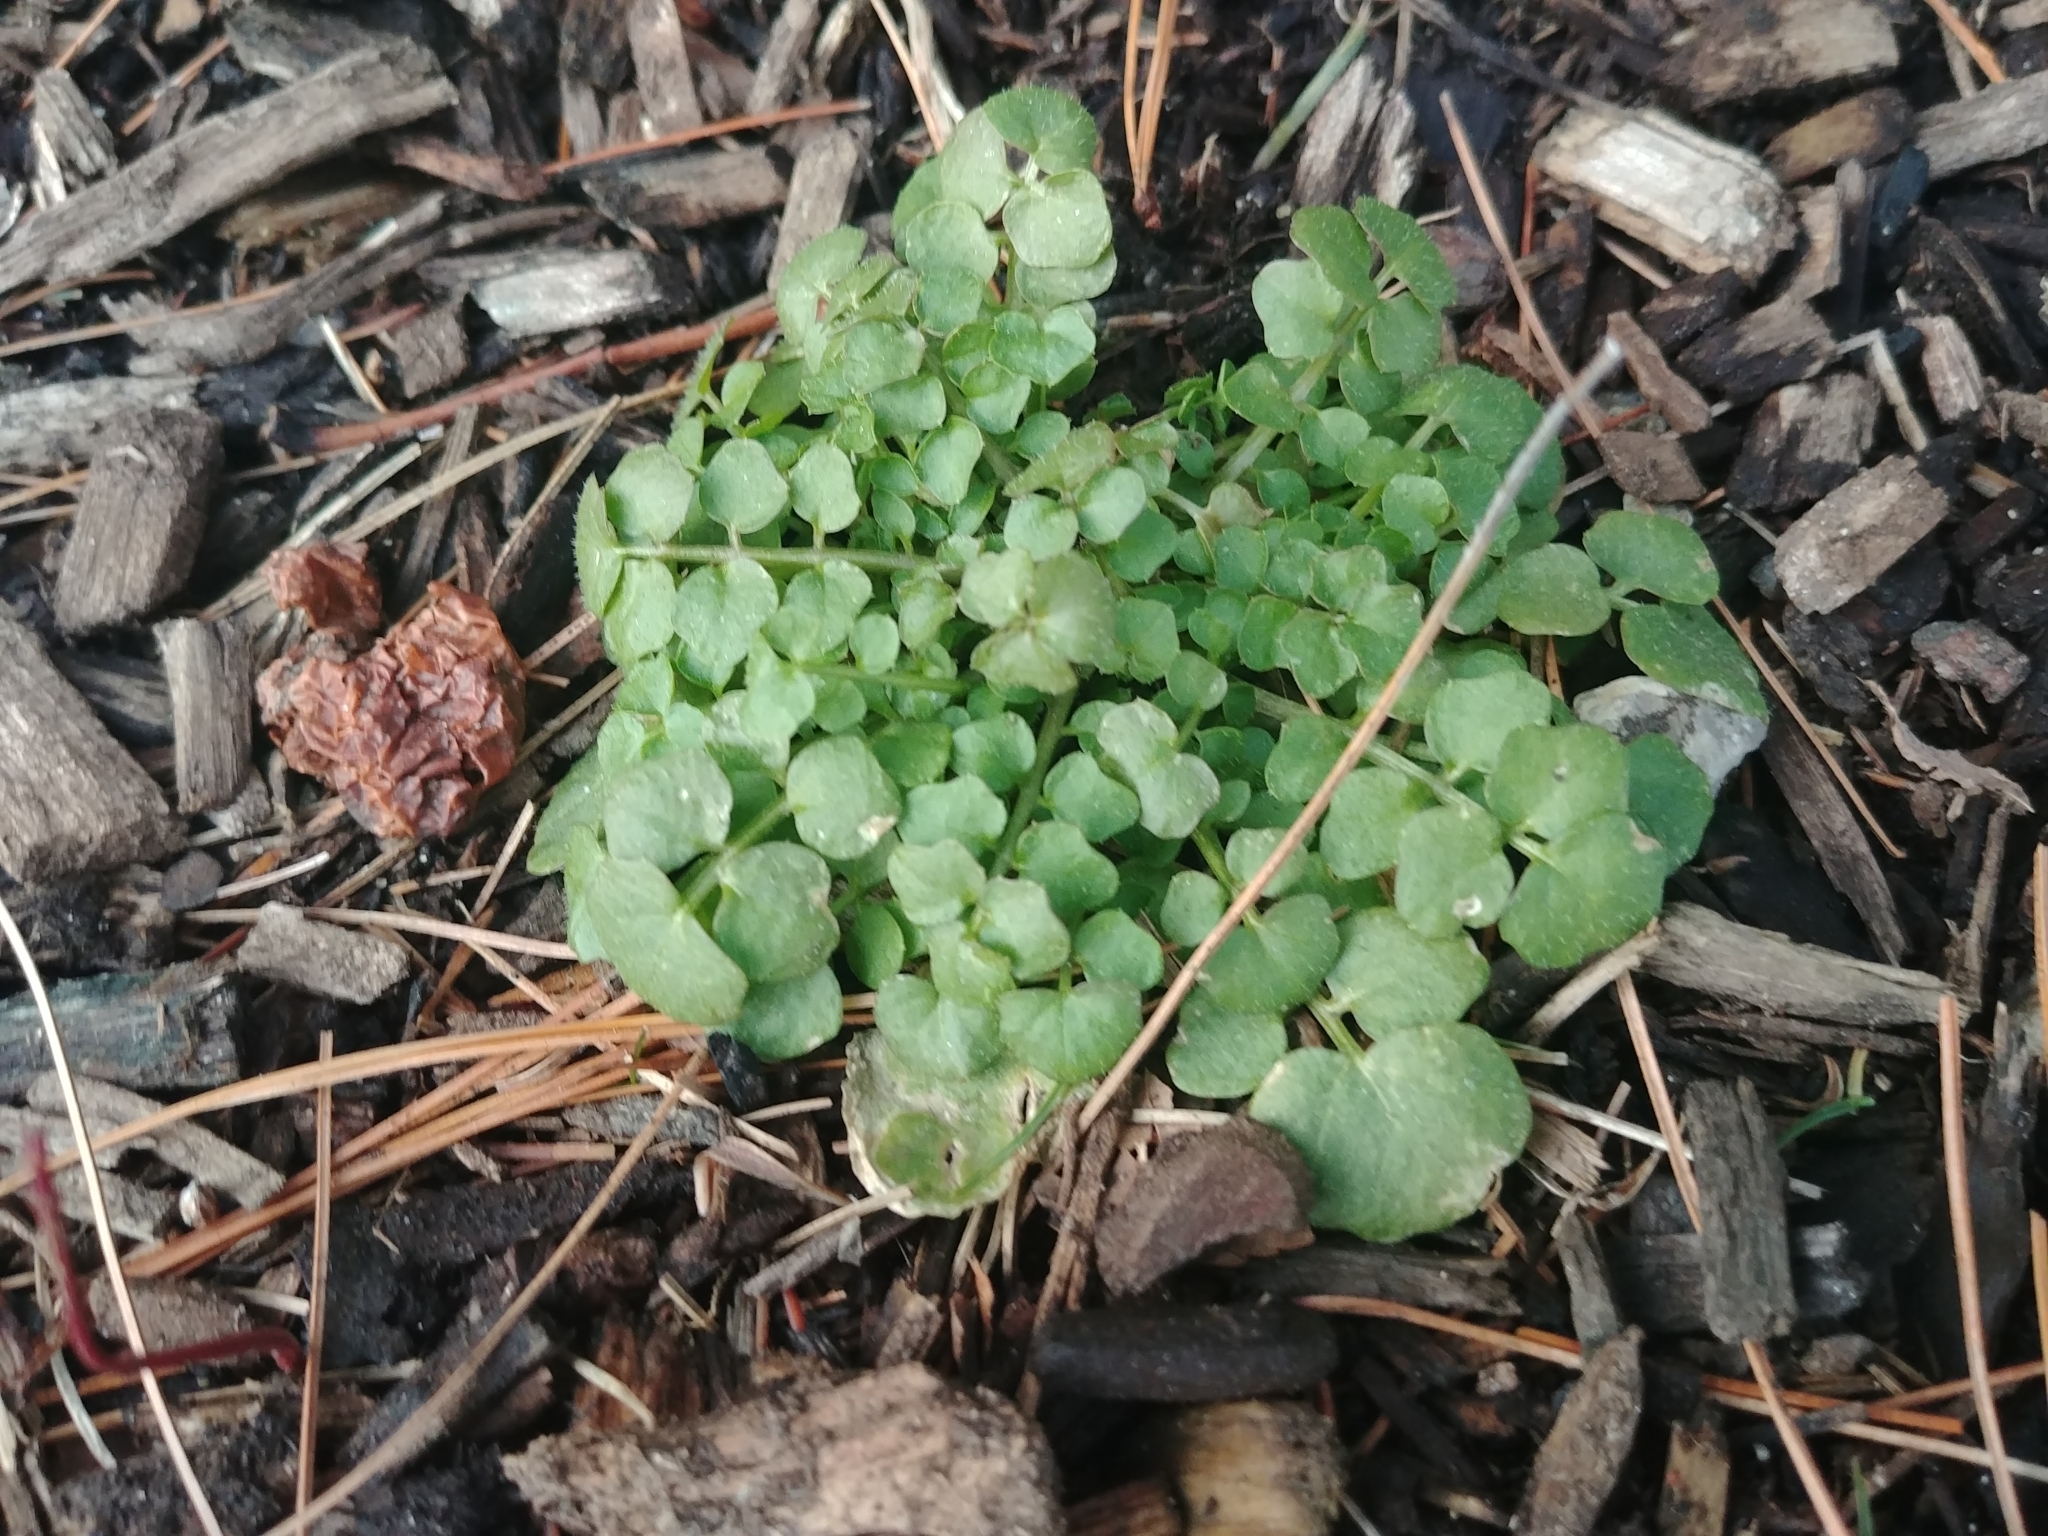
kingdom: Plantae
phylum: Tracheophyta
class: Magnoliopsida
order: Brassicales
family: Brassicaceae
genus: Cardamine
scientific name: Cardamine hirsuta
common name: Hairy bittercress
